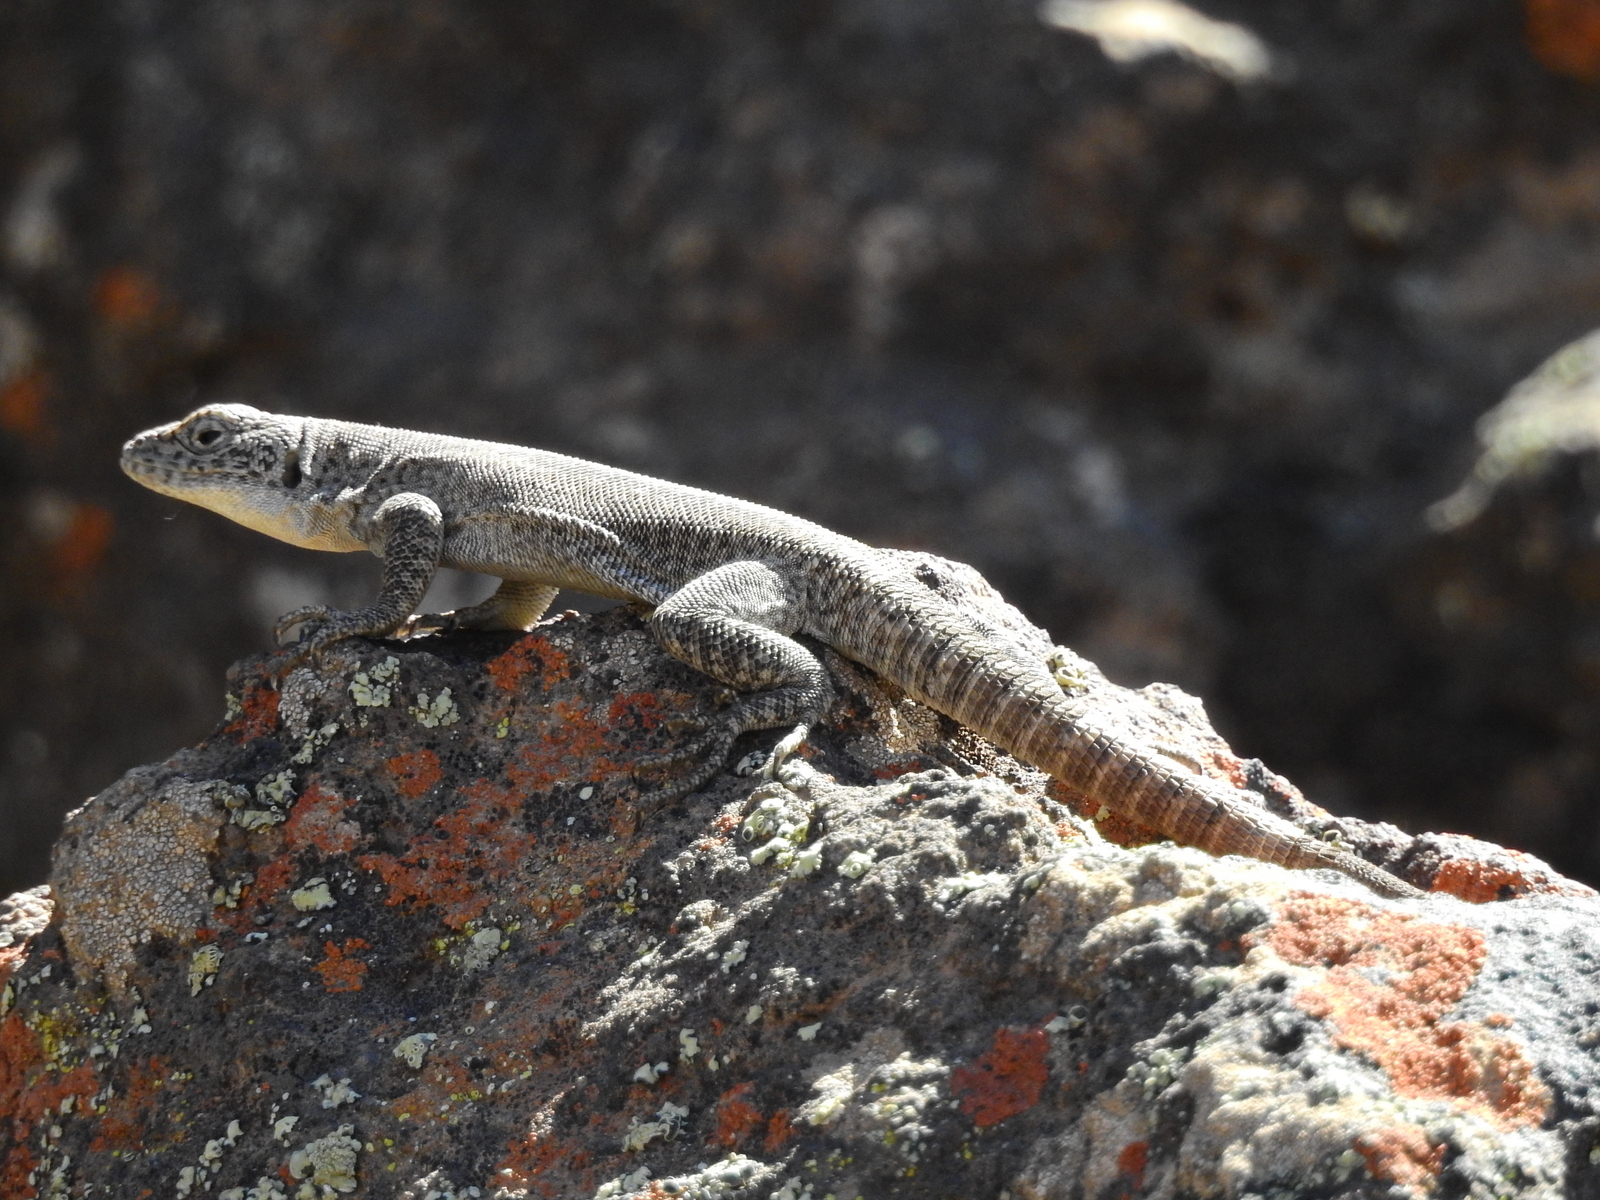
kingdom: Animalia
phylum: Chordata
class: Squamata
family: Liolaemidae
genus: Liolaemus
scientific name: Liolaemus austromendocinus
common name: Austromendocino tree iguana
